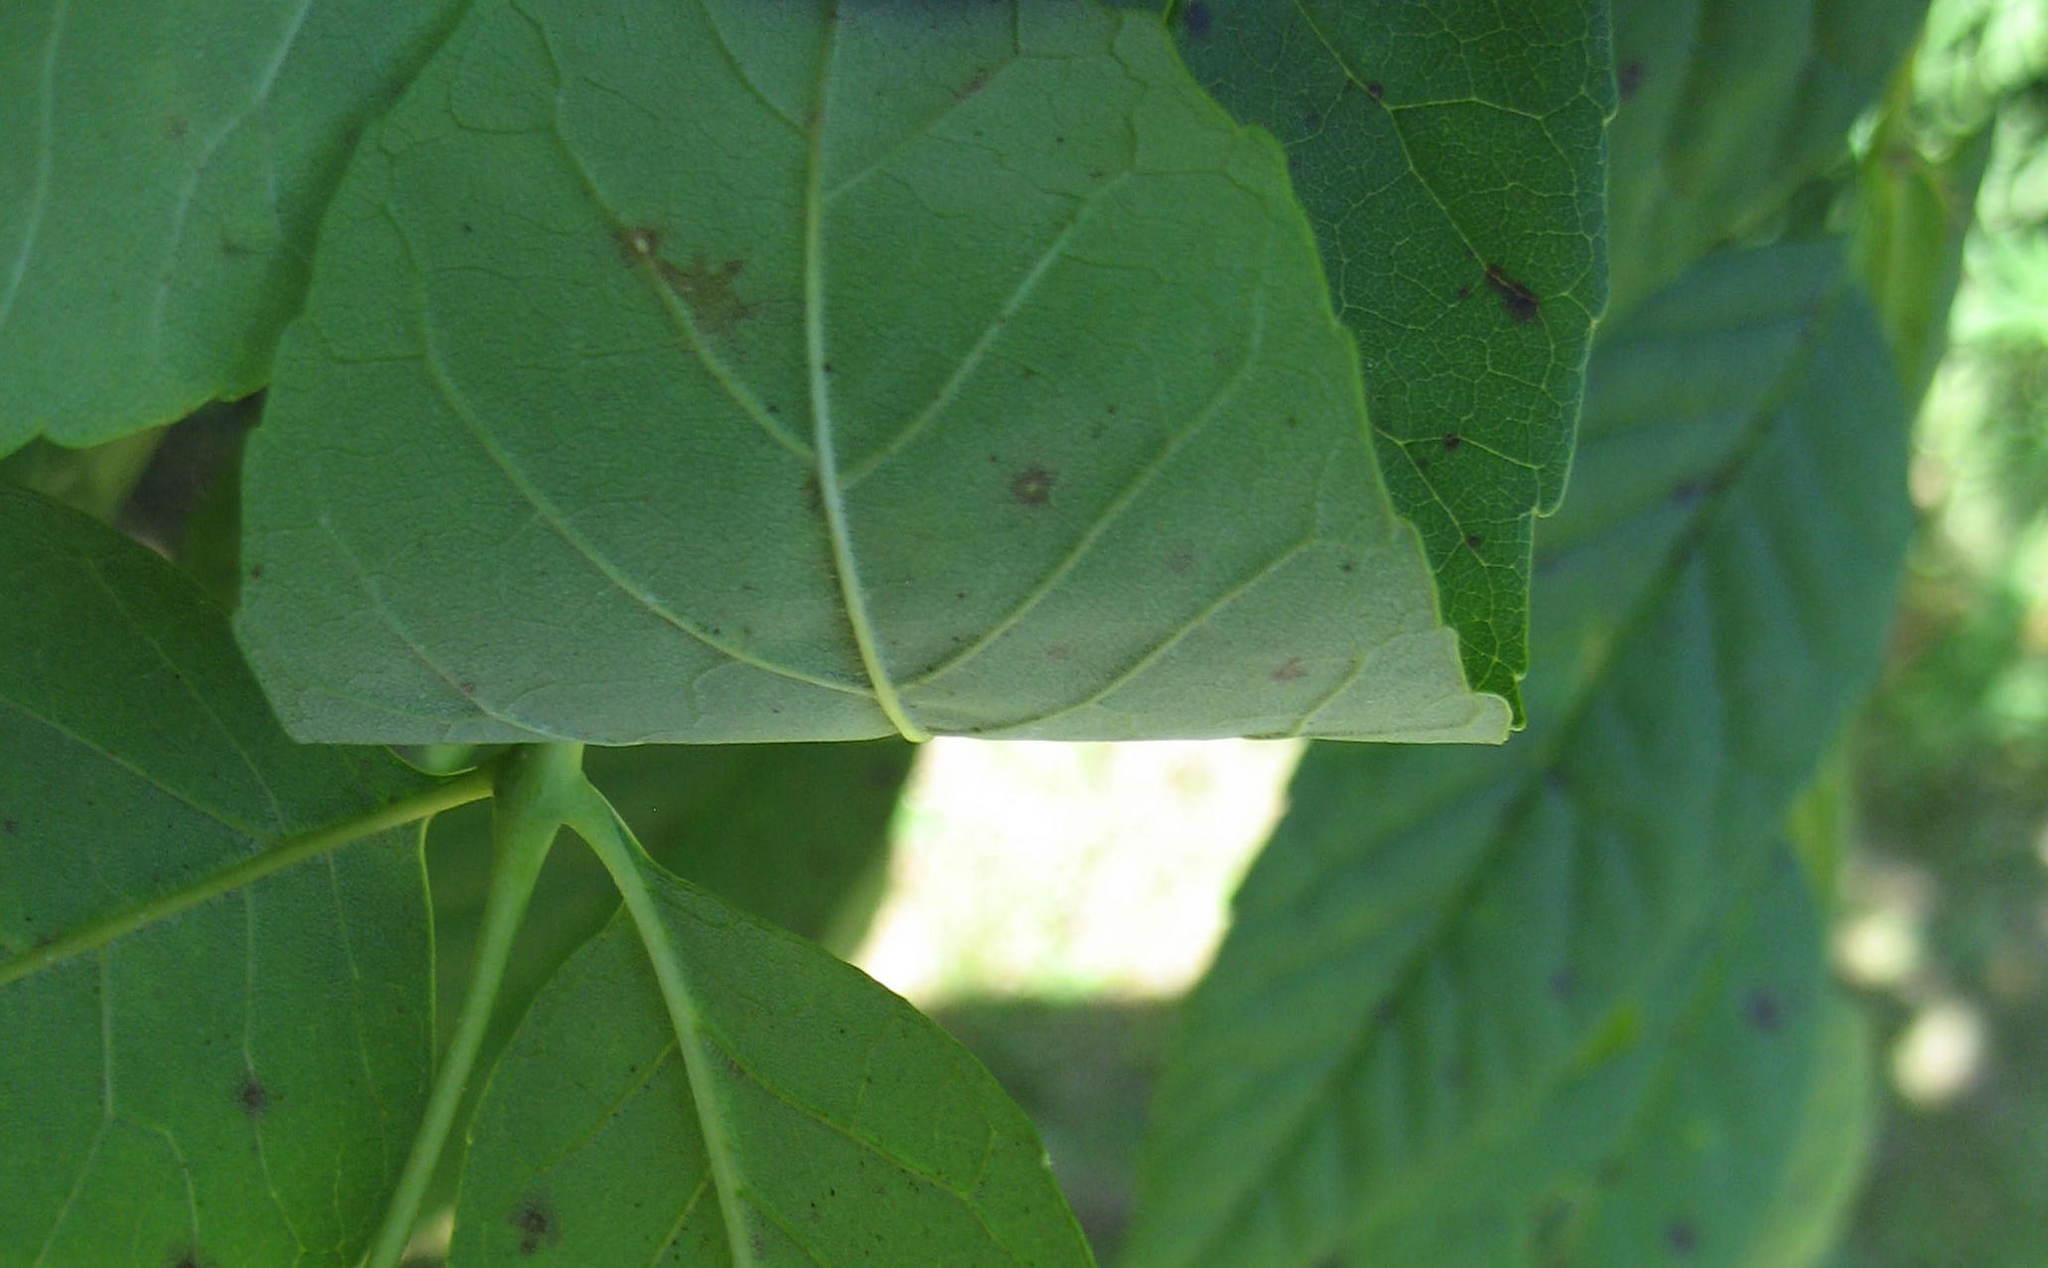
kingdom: Plantae
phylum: Tracheophyta
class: Magnoliopsida
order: Lamiales
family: Oleaceae
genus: Fraxinus
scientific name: Fraxinus americana
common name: White ash
